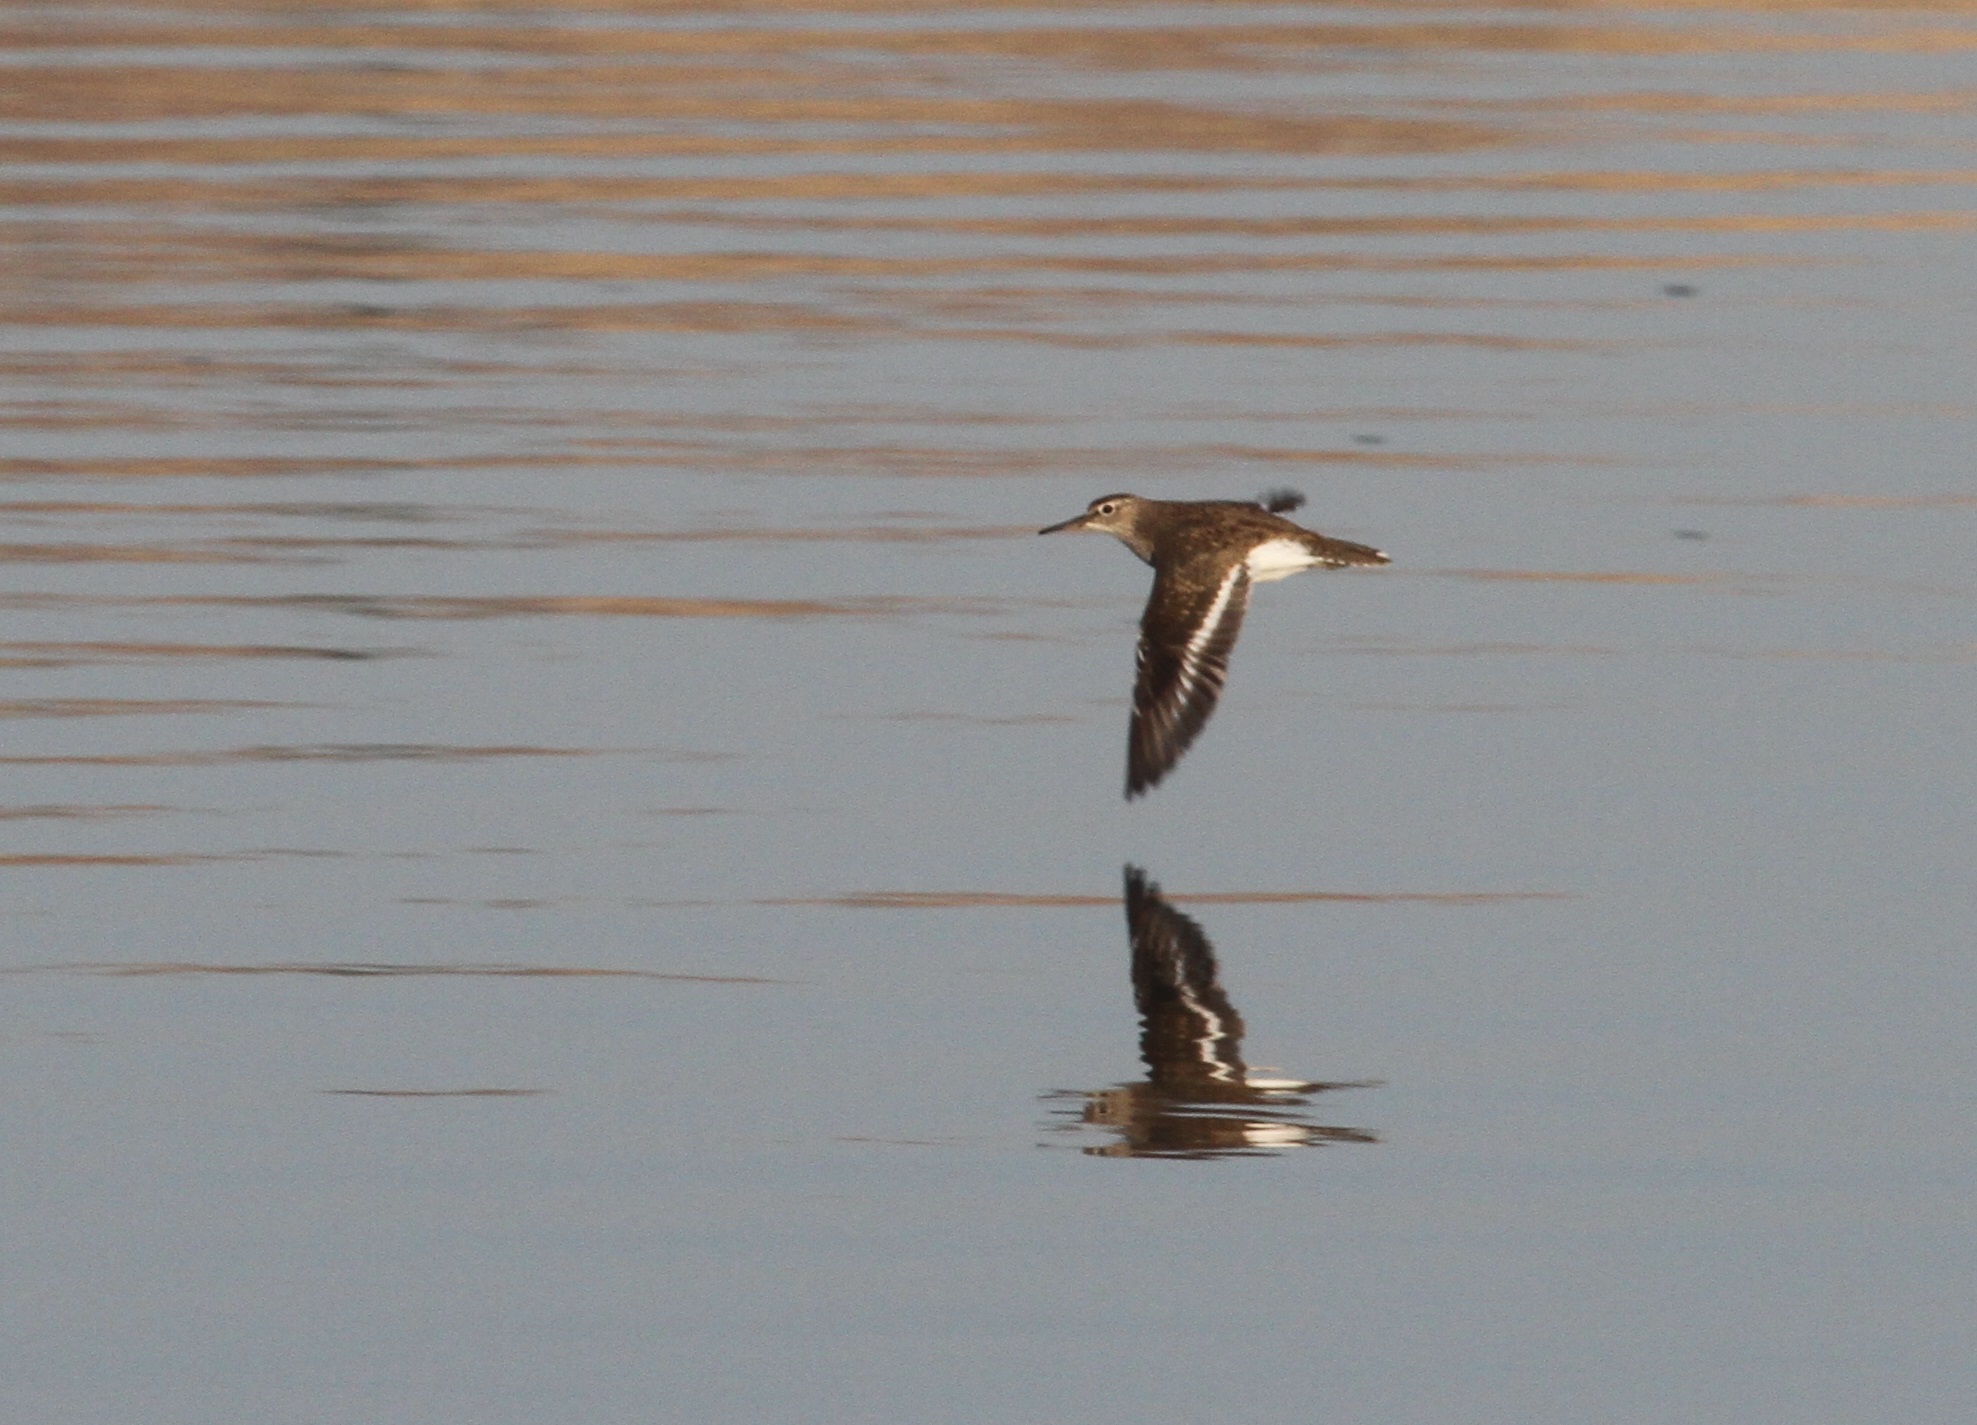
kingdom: Animalia
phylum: Chordata
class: Aves
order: Charadriiformes
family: Scolopacidae
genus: Actitis
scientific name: Actitis hypoleucos
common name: Common sandpiper
